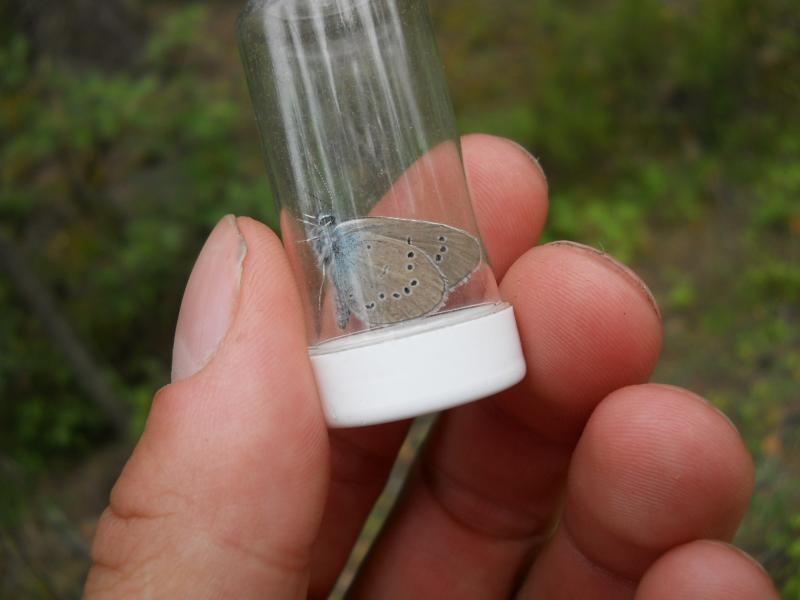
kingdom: Animalia
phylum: Arthropoda
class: Insecta
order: Lepidoptera
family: Lycaenidae
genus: Cyaniris
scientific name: Cyaniris semiargus
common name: Mazarine blue
